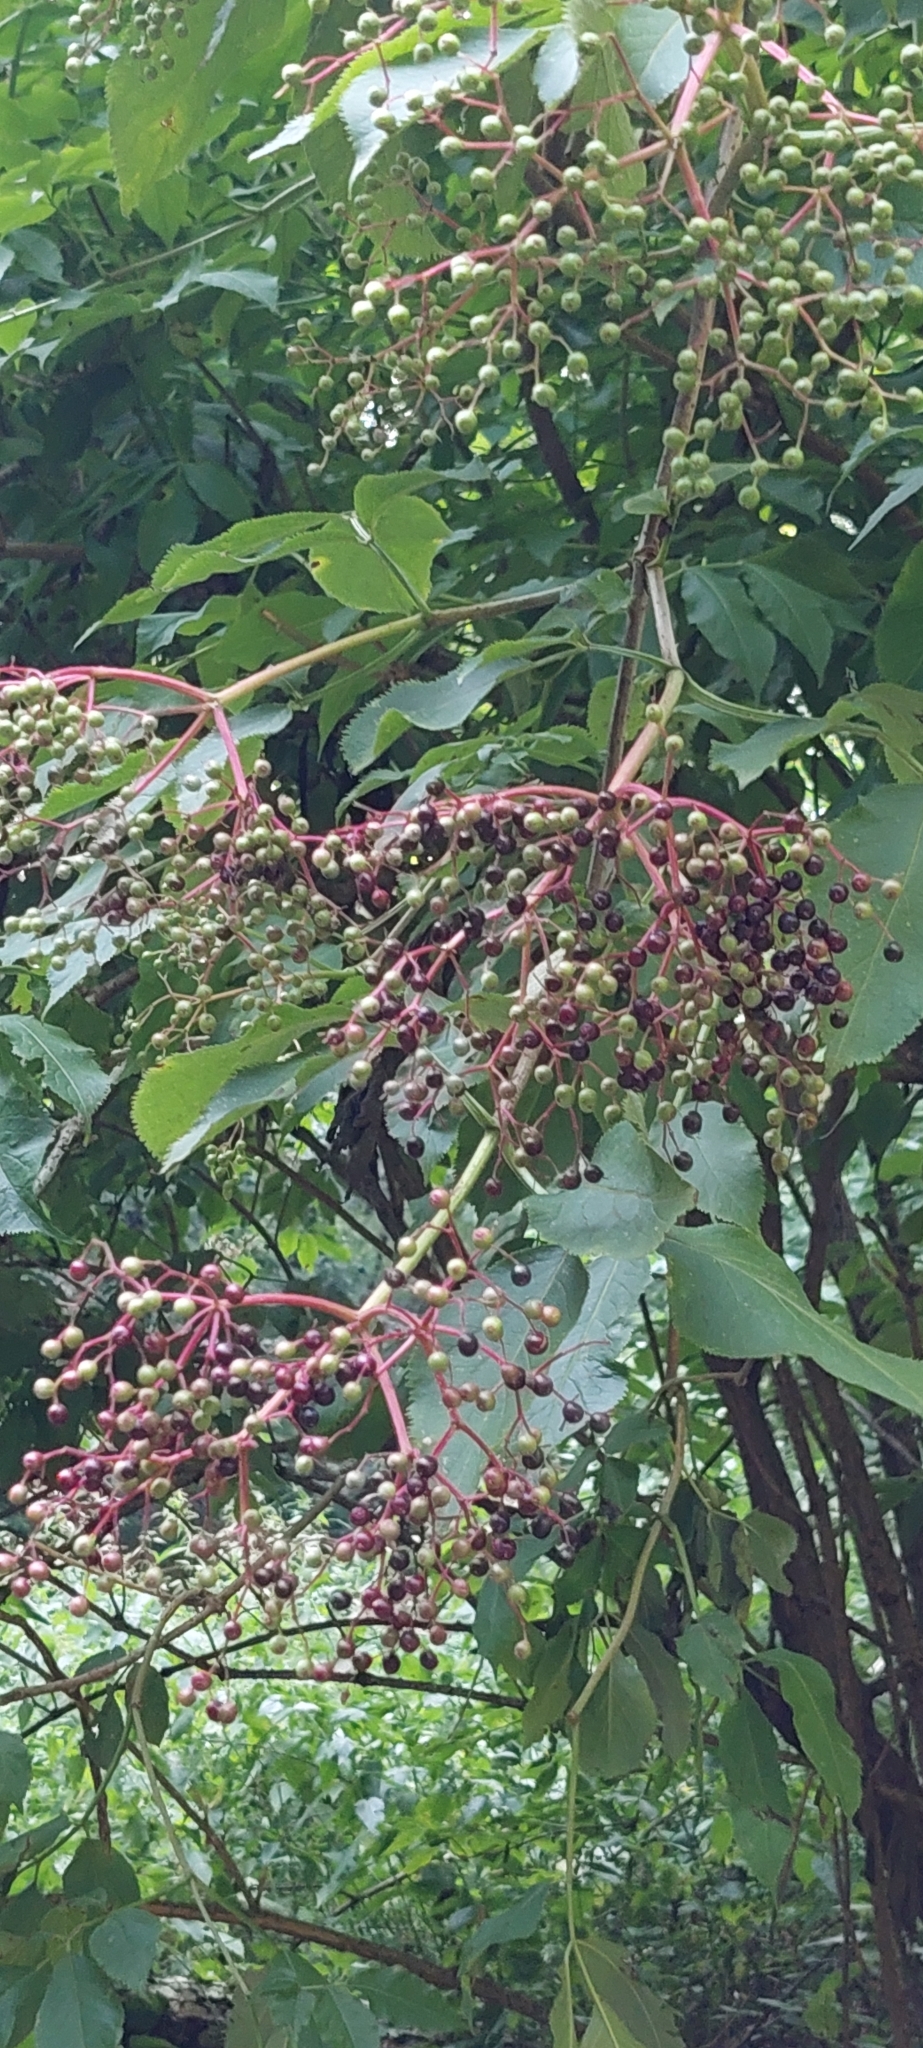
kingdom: Plantae
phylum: Tracheophyta
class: Magnoliopsida
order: Dipsacales
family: Viburnaceae
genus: Sambucus
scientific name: Sambucus nigra
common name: Elder
